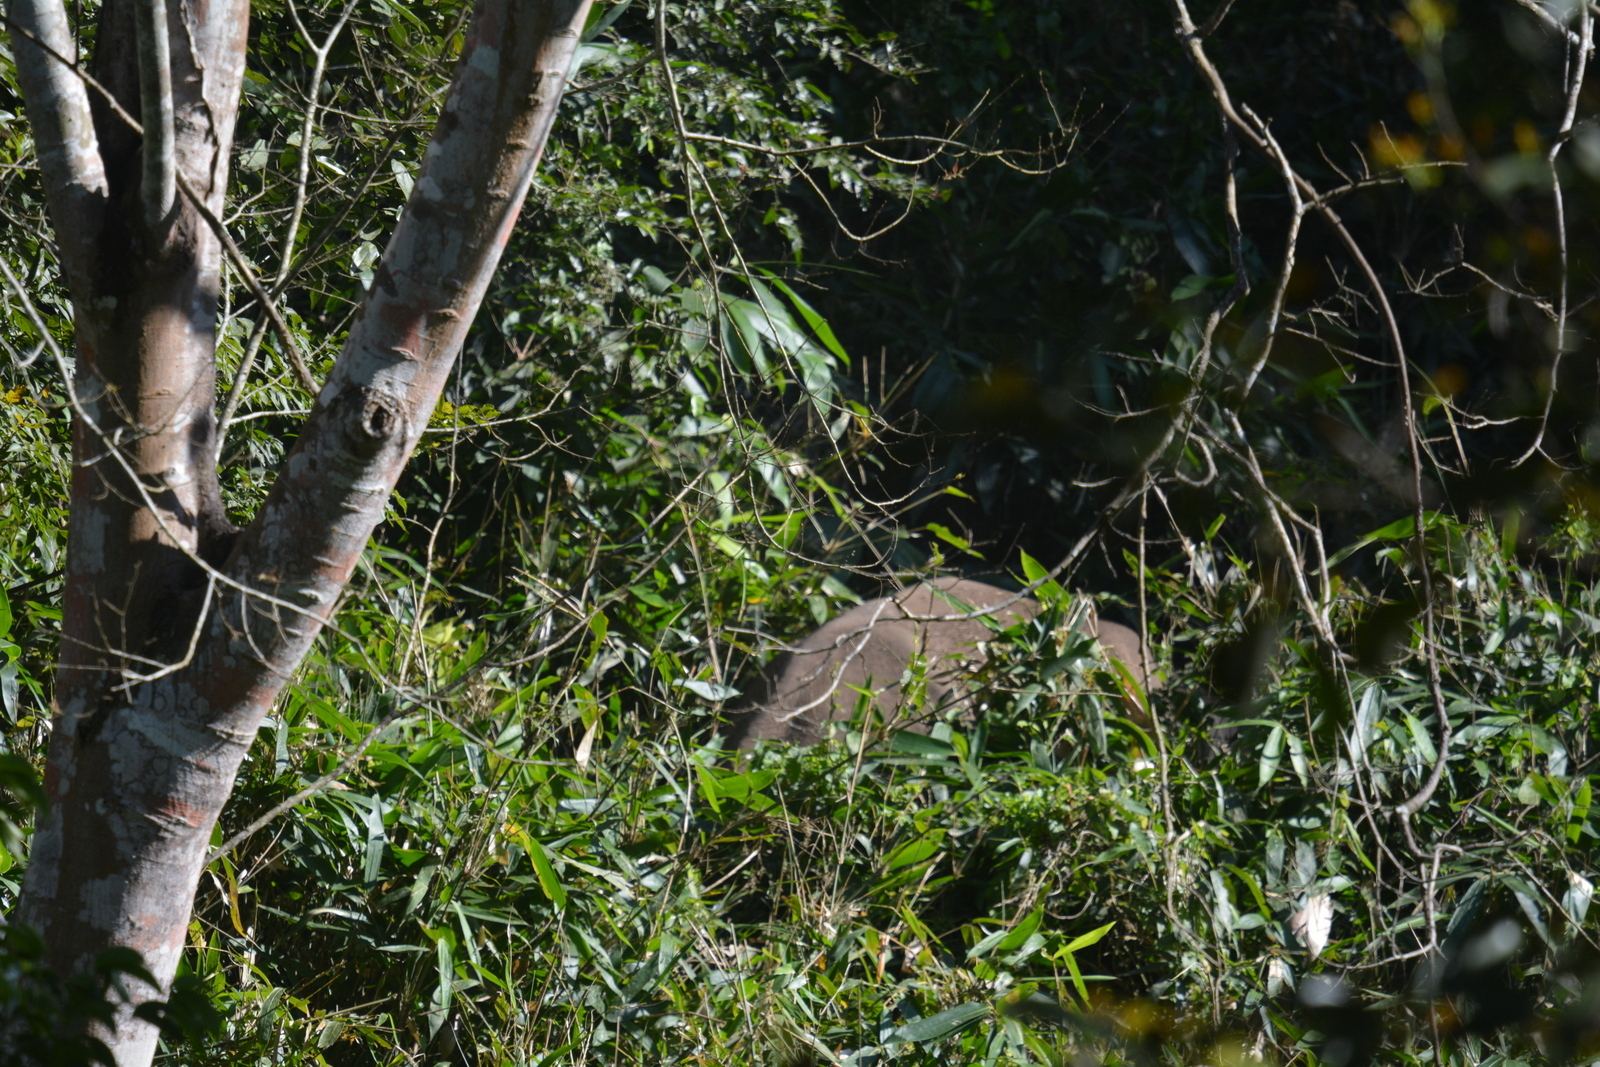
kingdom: Animalia
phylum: Chordata
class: Mammalia
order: Proboscidea
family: Elephantidae
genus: Elephas
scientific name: Elephas maximus
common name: Asian elephant
